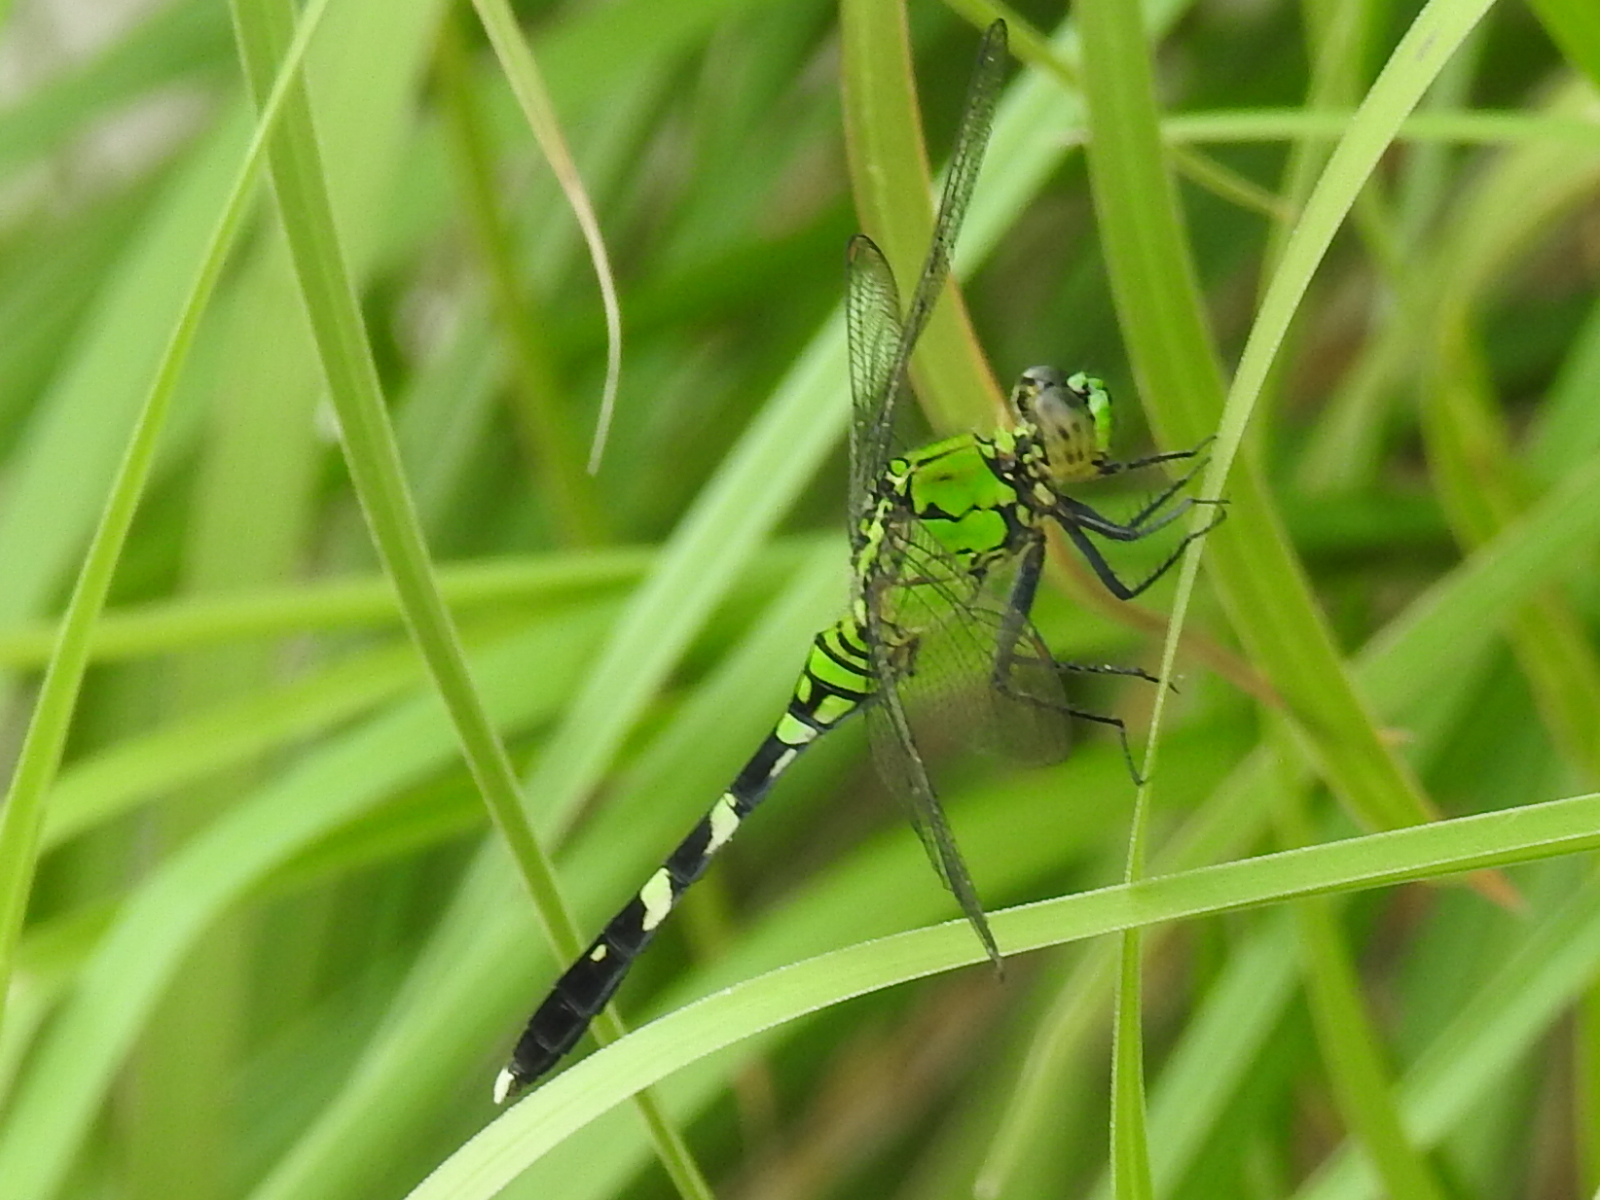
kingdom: Animalia
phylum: Arthropoda
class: Insecta
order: Odonata
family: Libellulidae
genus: Erythemis
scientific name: Erythemis simplicicollis
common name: Eastern pondhawk
